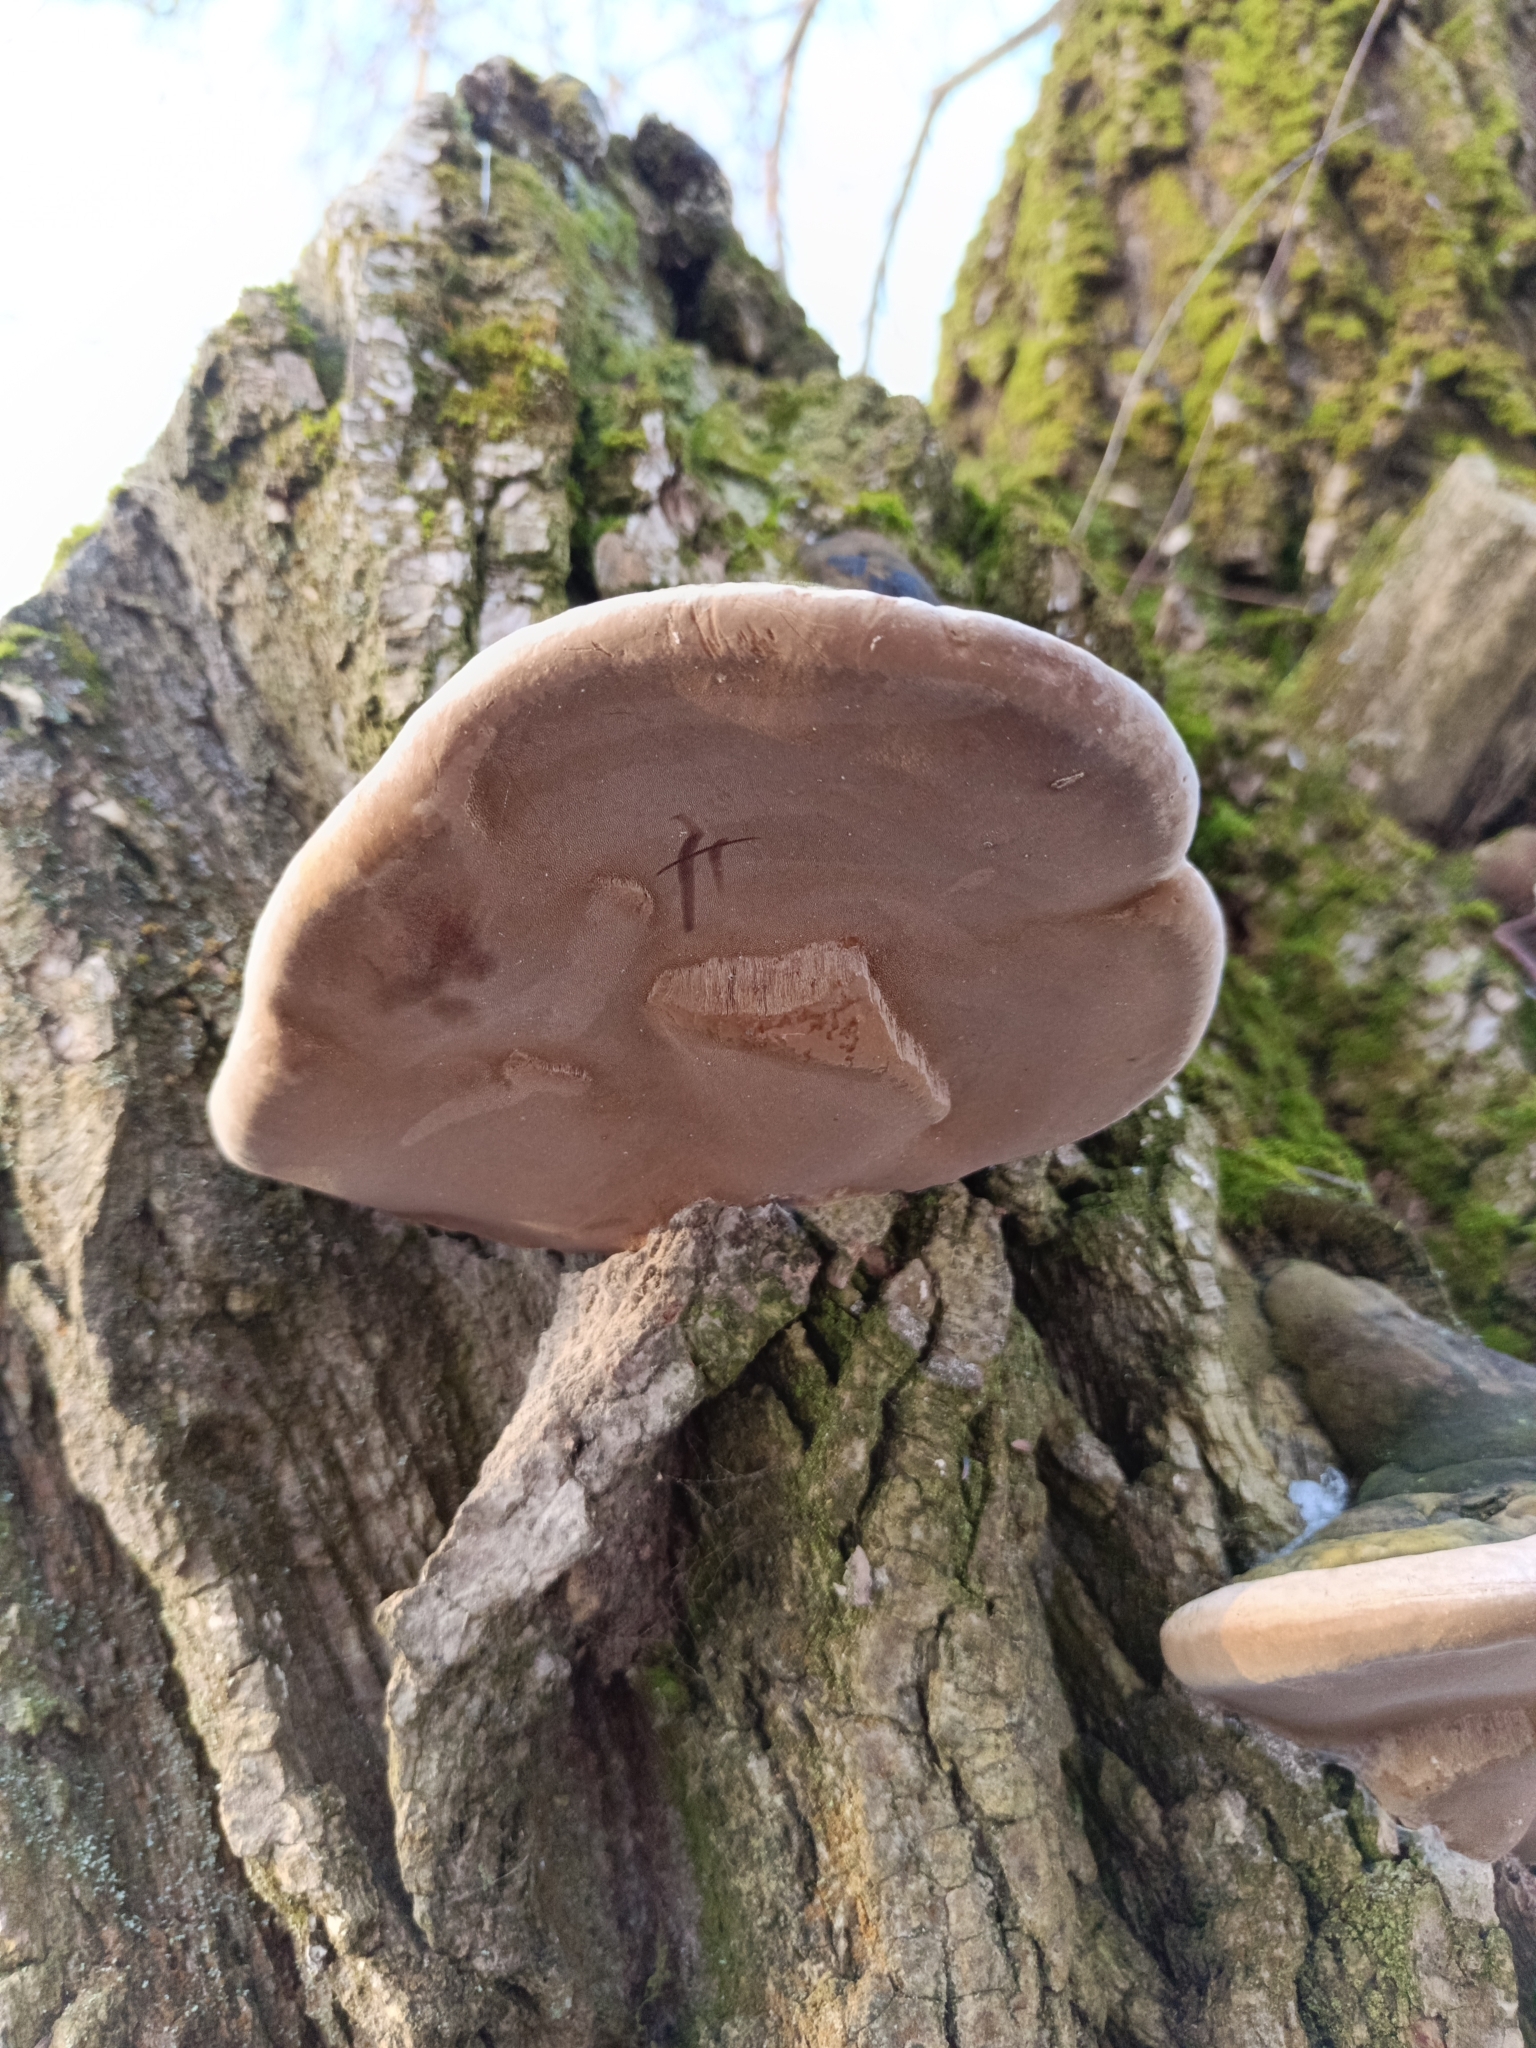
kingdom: Fungi
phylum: Basidiomycota
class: Agaricomycetes
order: Hymenochaetales
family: Hymenochaetaceae
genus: Phellinus
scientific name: Phellinus igniarius
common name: Willow bracket
